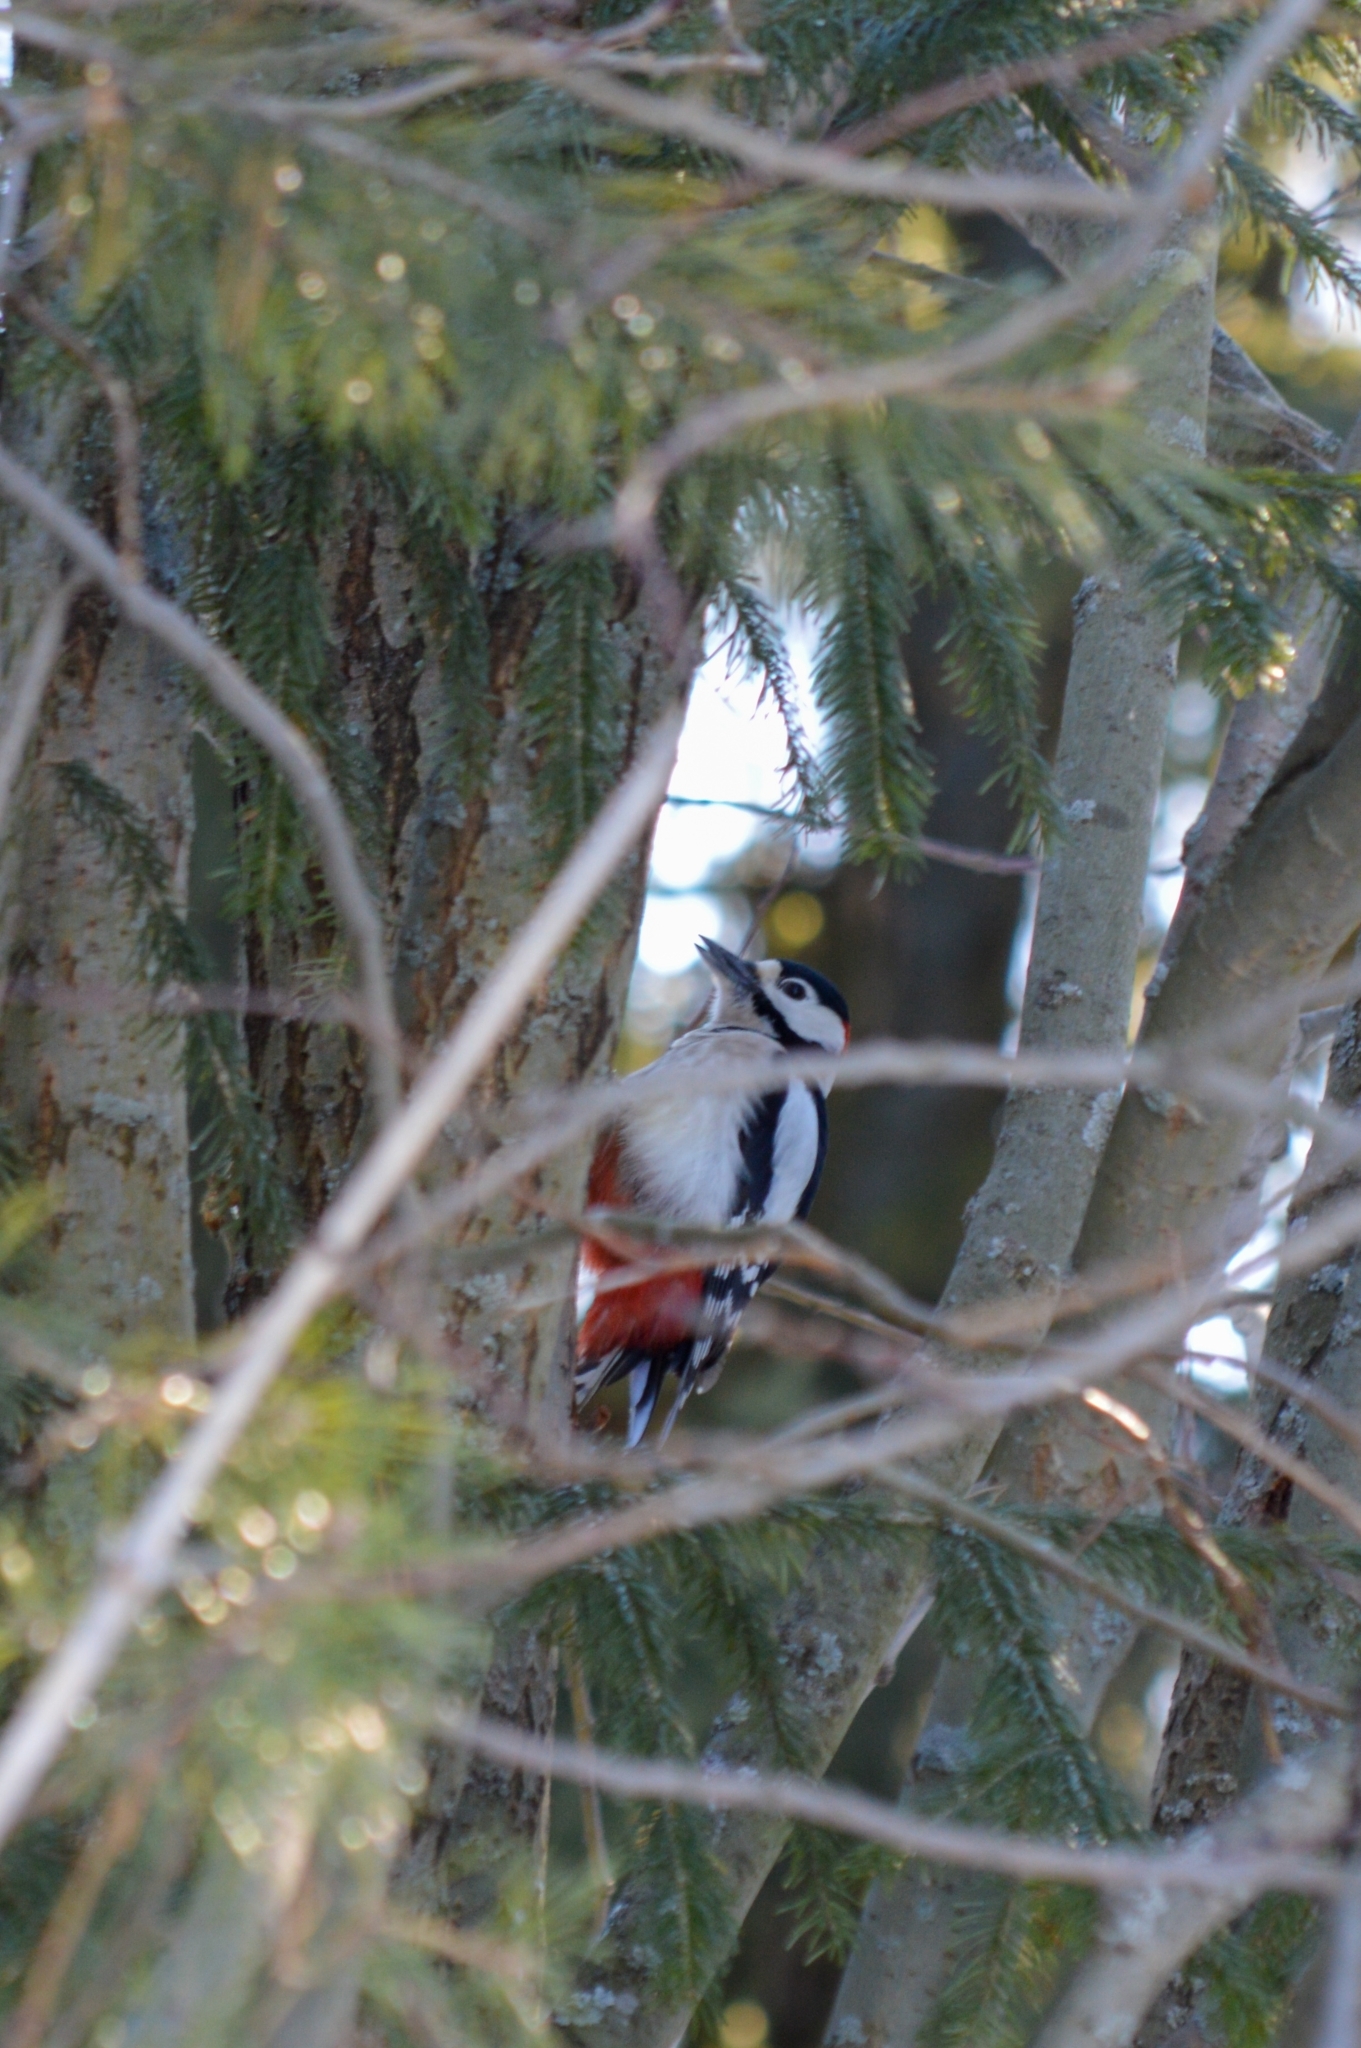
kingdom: Animalia
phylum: Chordata
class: Aves
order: Piciformes
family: Picidae
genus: Dendrocopos
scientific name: Dendrocopos major
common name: Great spotted woodpecker
